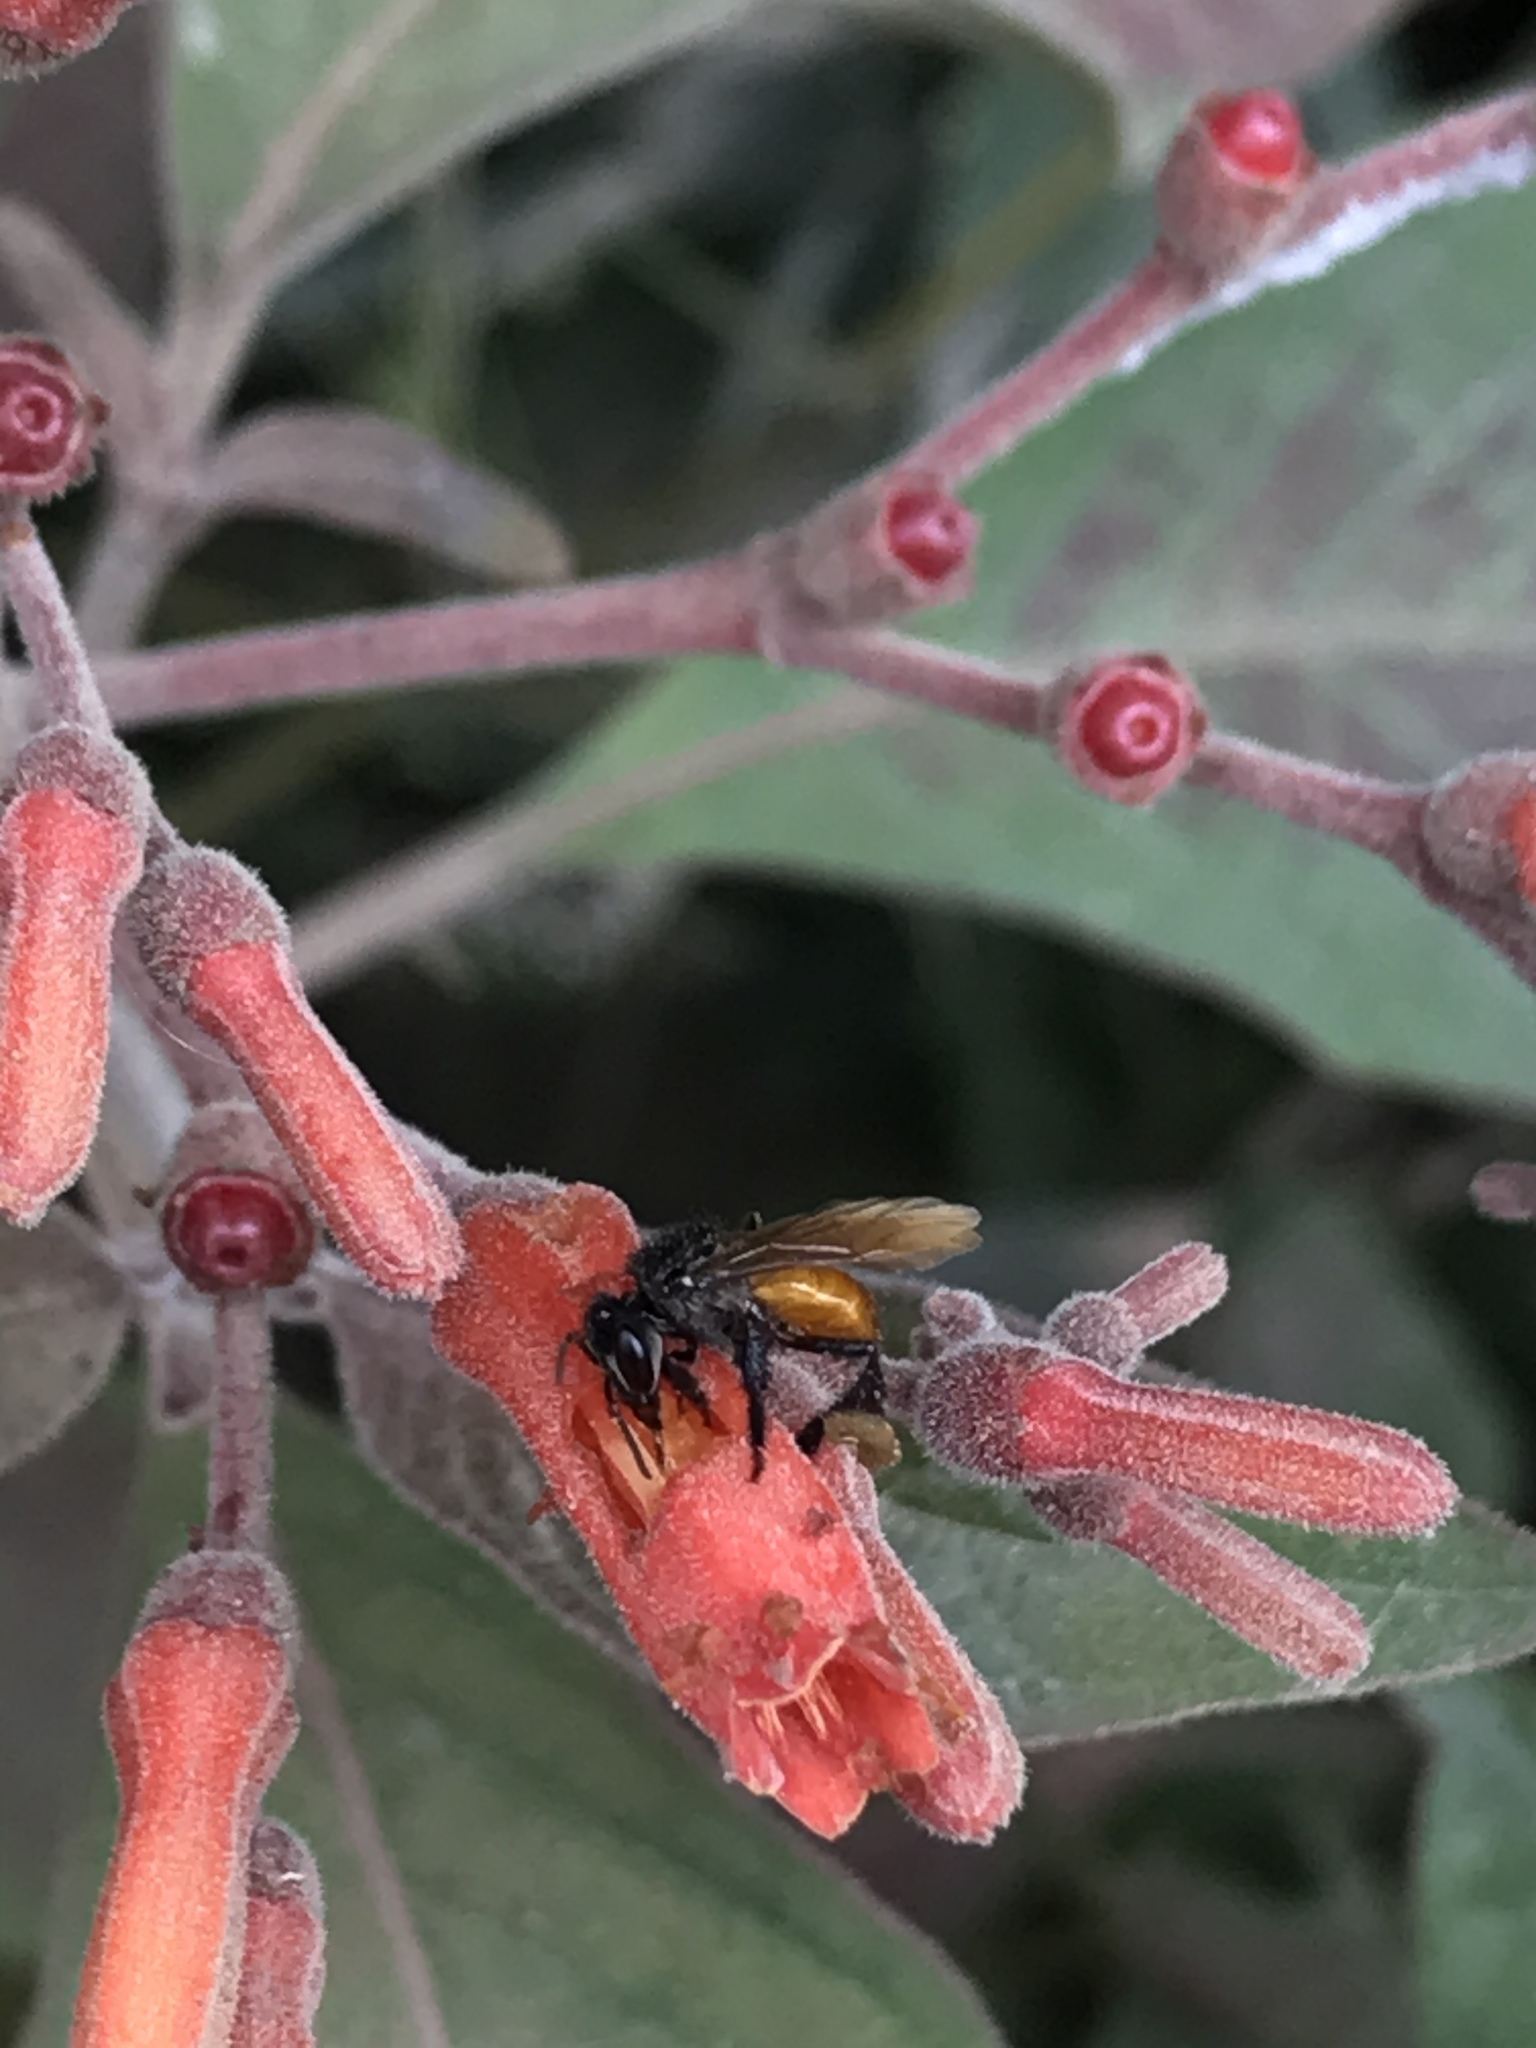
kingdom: Animalia
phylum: Arthropoda
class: Insecta
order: Hymenoptera
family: Apidae
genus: Trigona
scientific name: Trigona fulviventris
